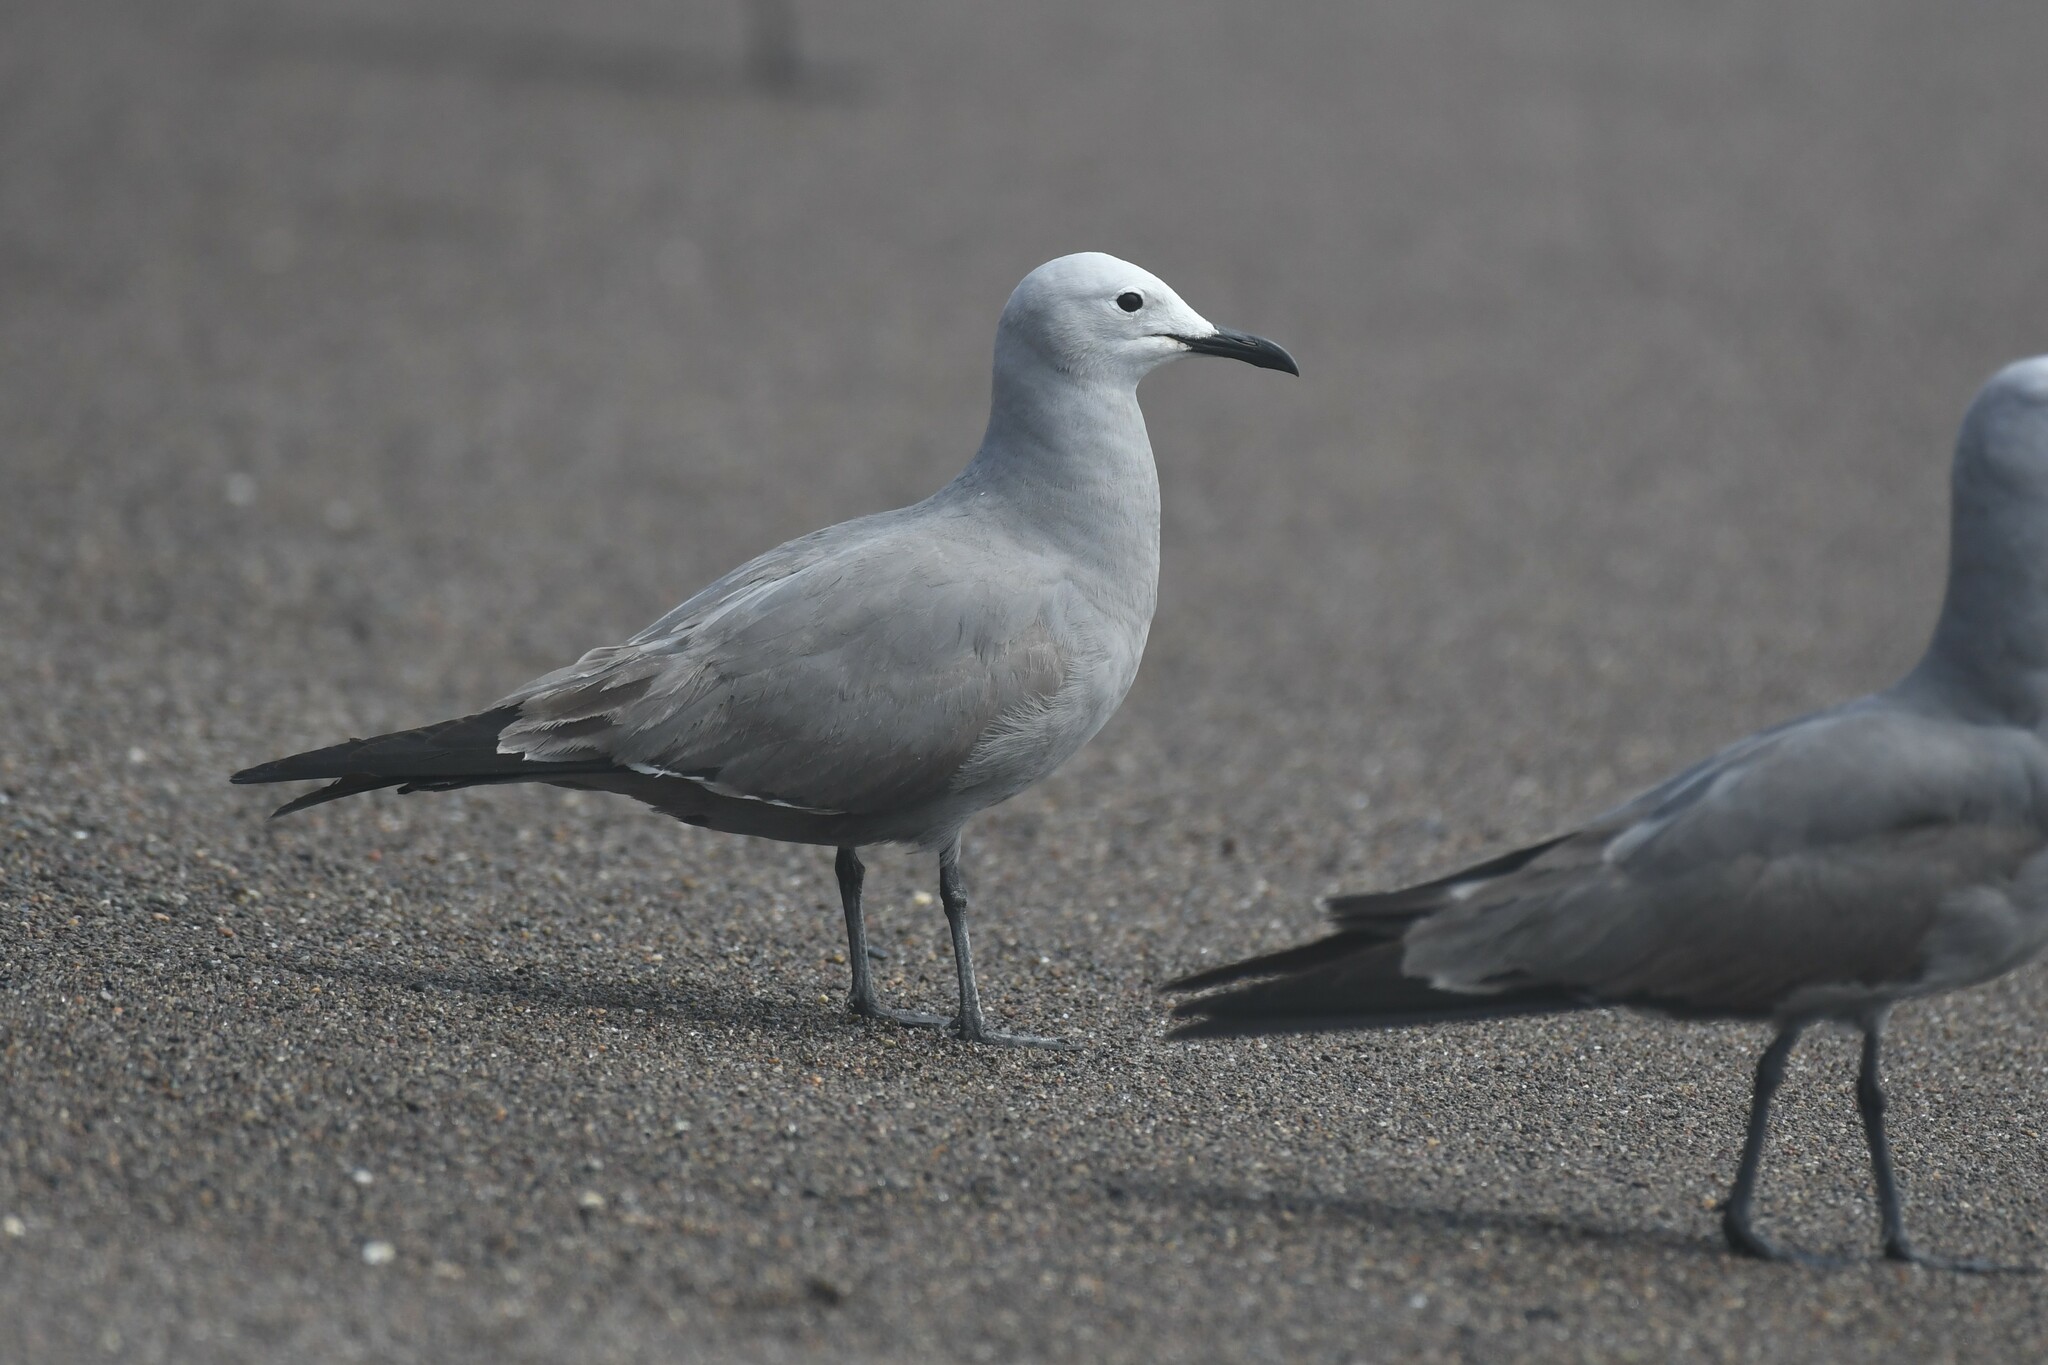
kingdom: Animalia
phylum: Chordata
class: Aves
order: Charadriiformes
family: Laridae
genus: Leucophaeus
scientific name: Leucophaeus modestus
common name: Gray gull
